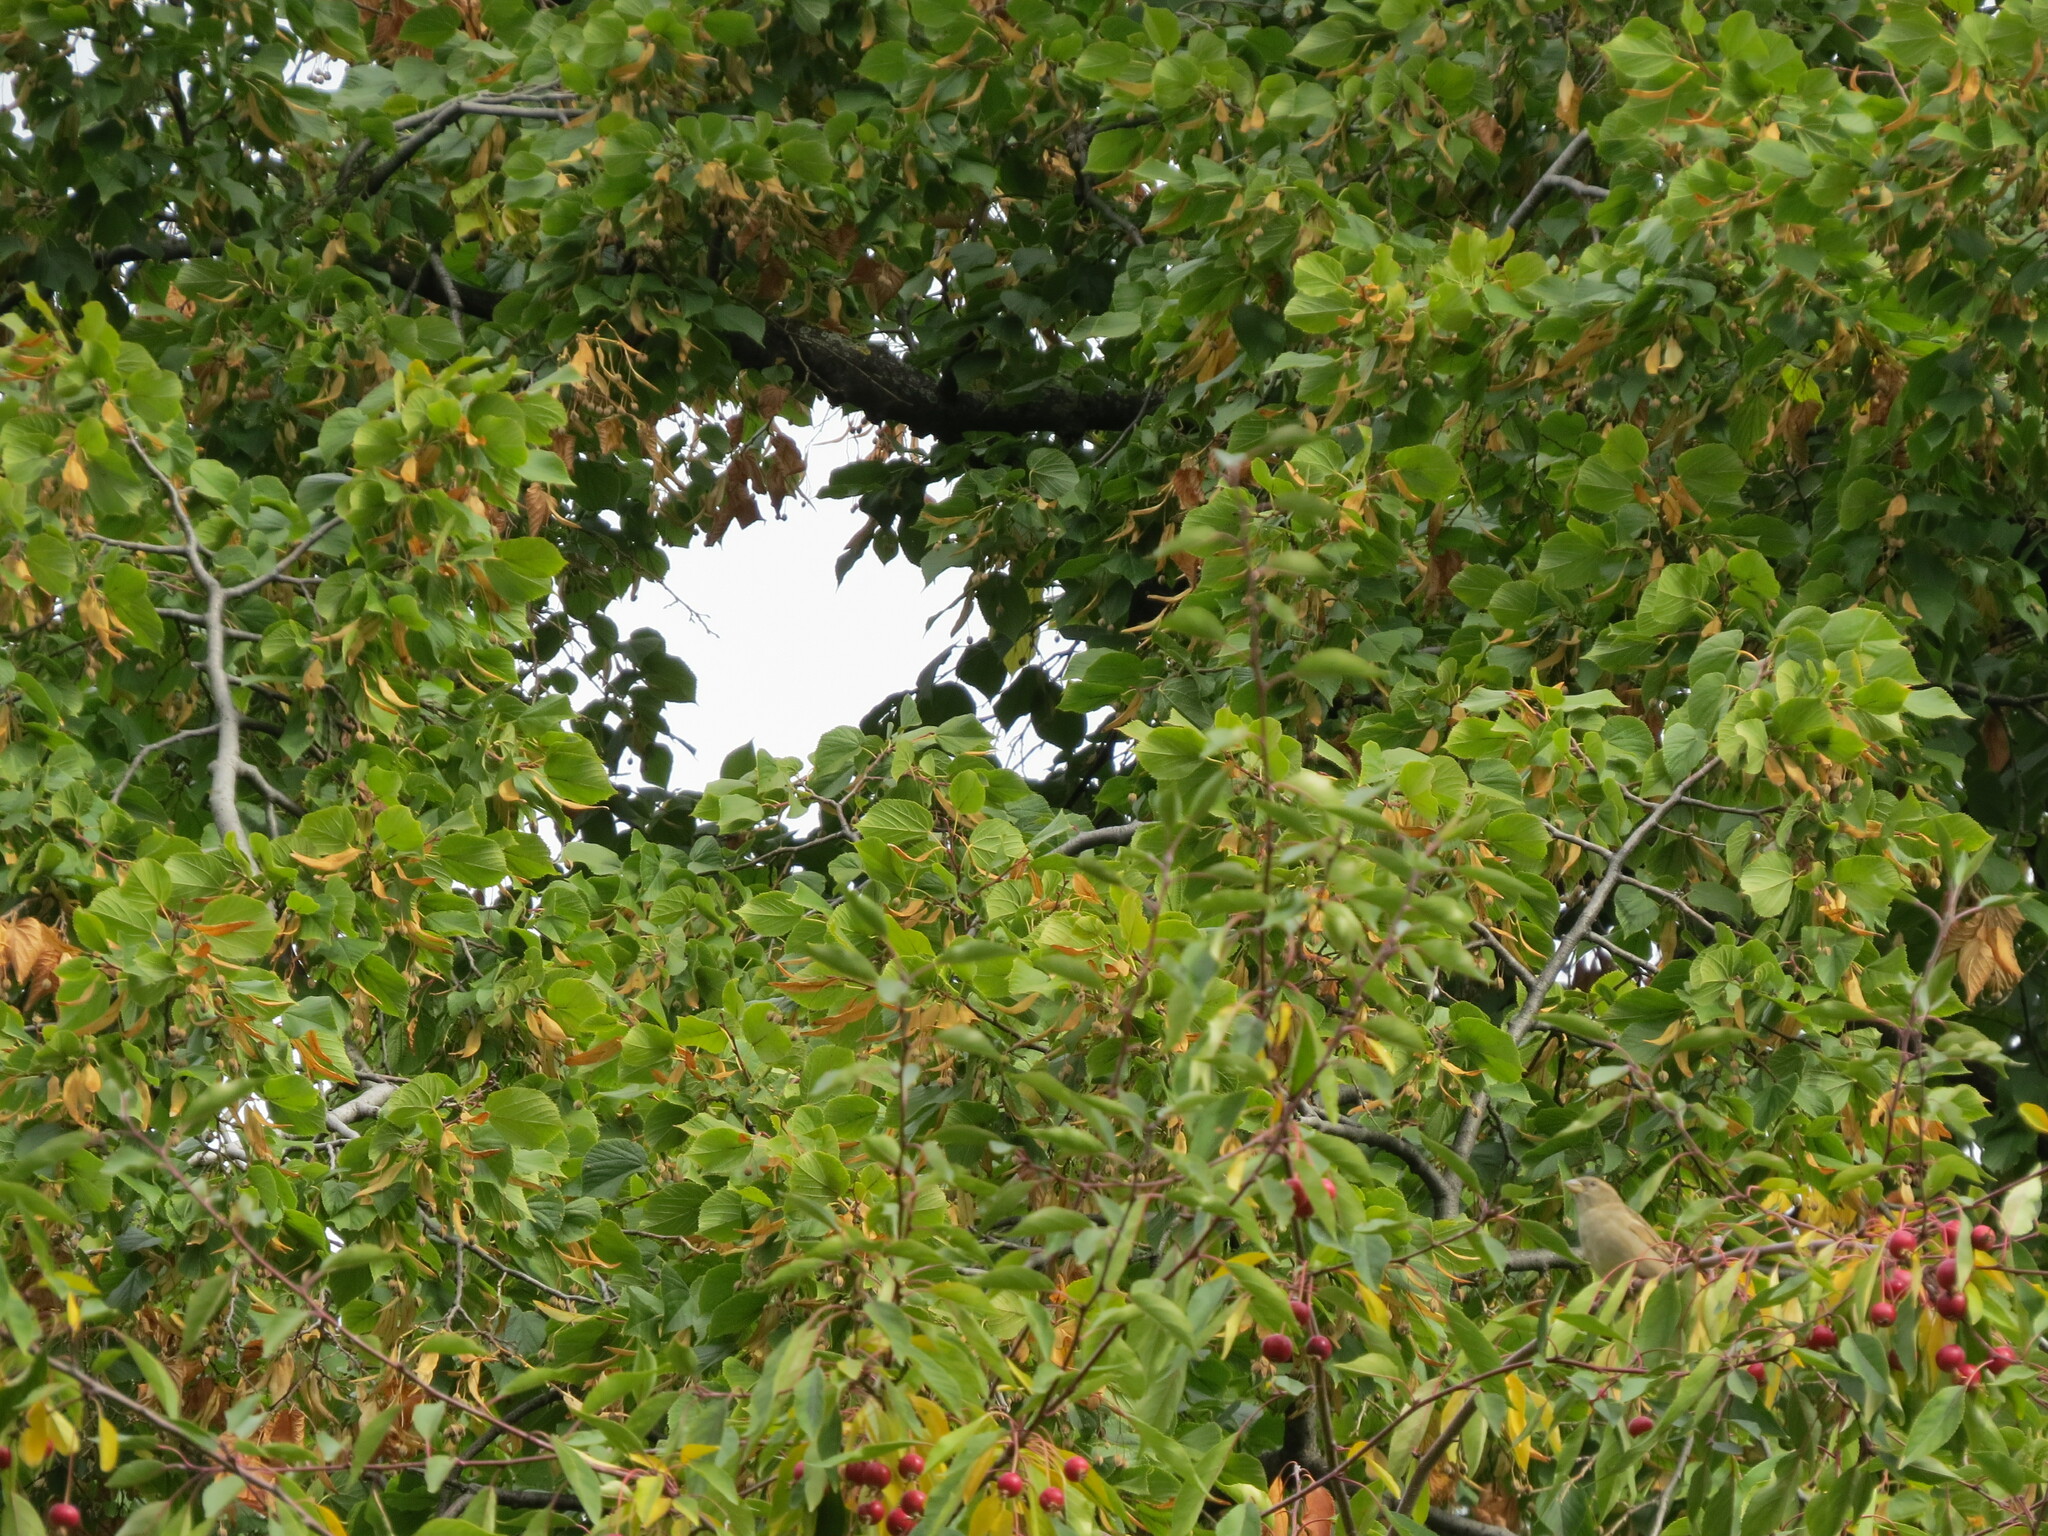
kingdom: Animalia
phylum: Chordata
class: Aves
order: Passeriformes
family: Passeridae
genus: Passer
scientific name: Passer domesticus
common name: House sparrow
